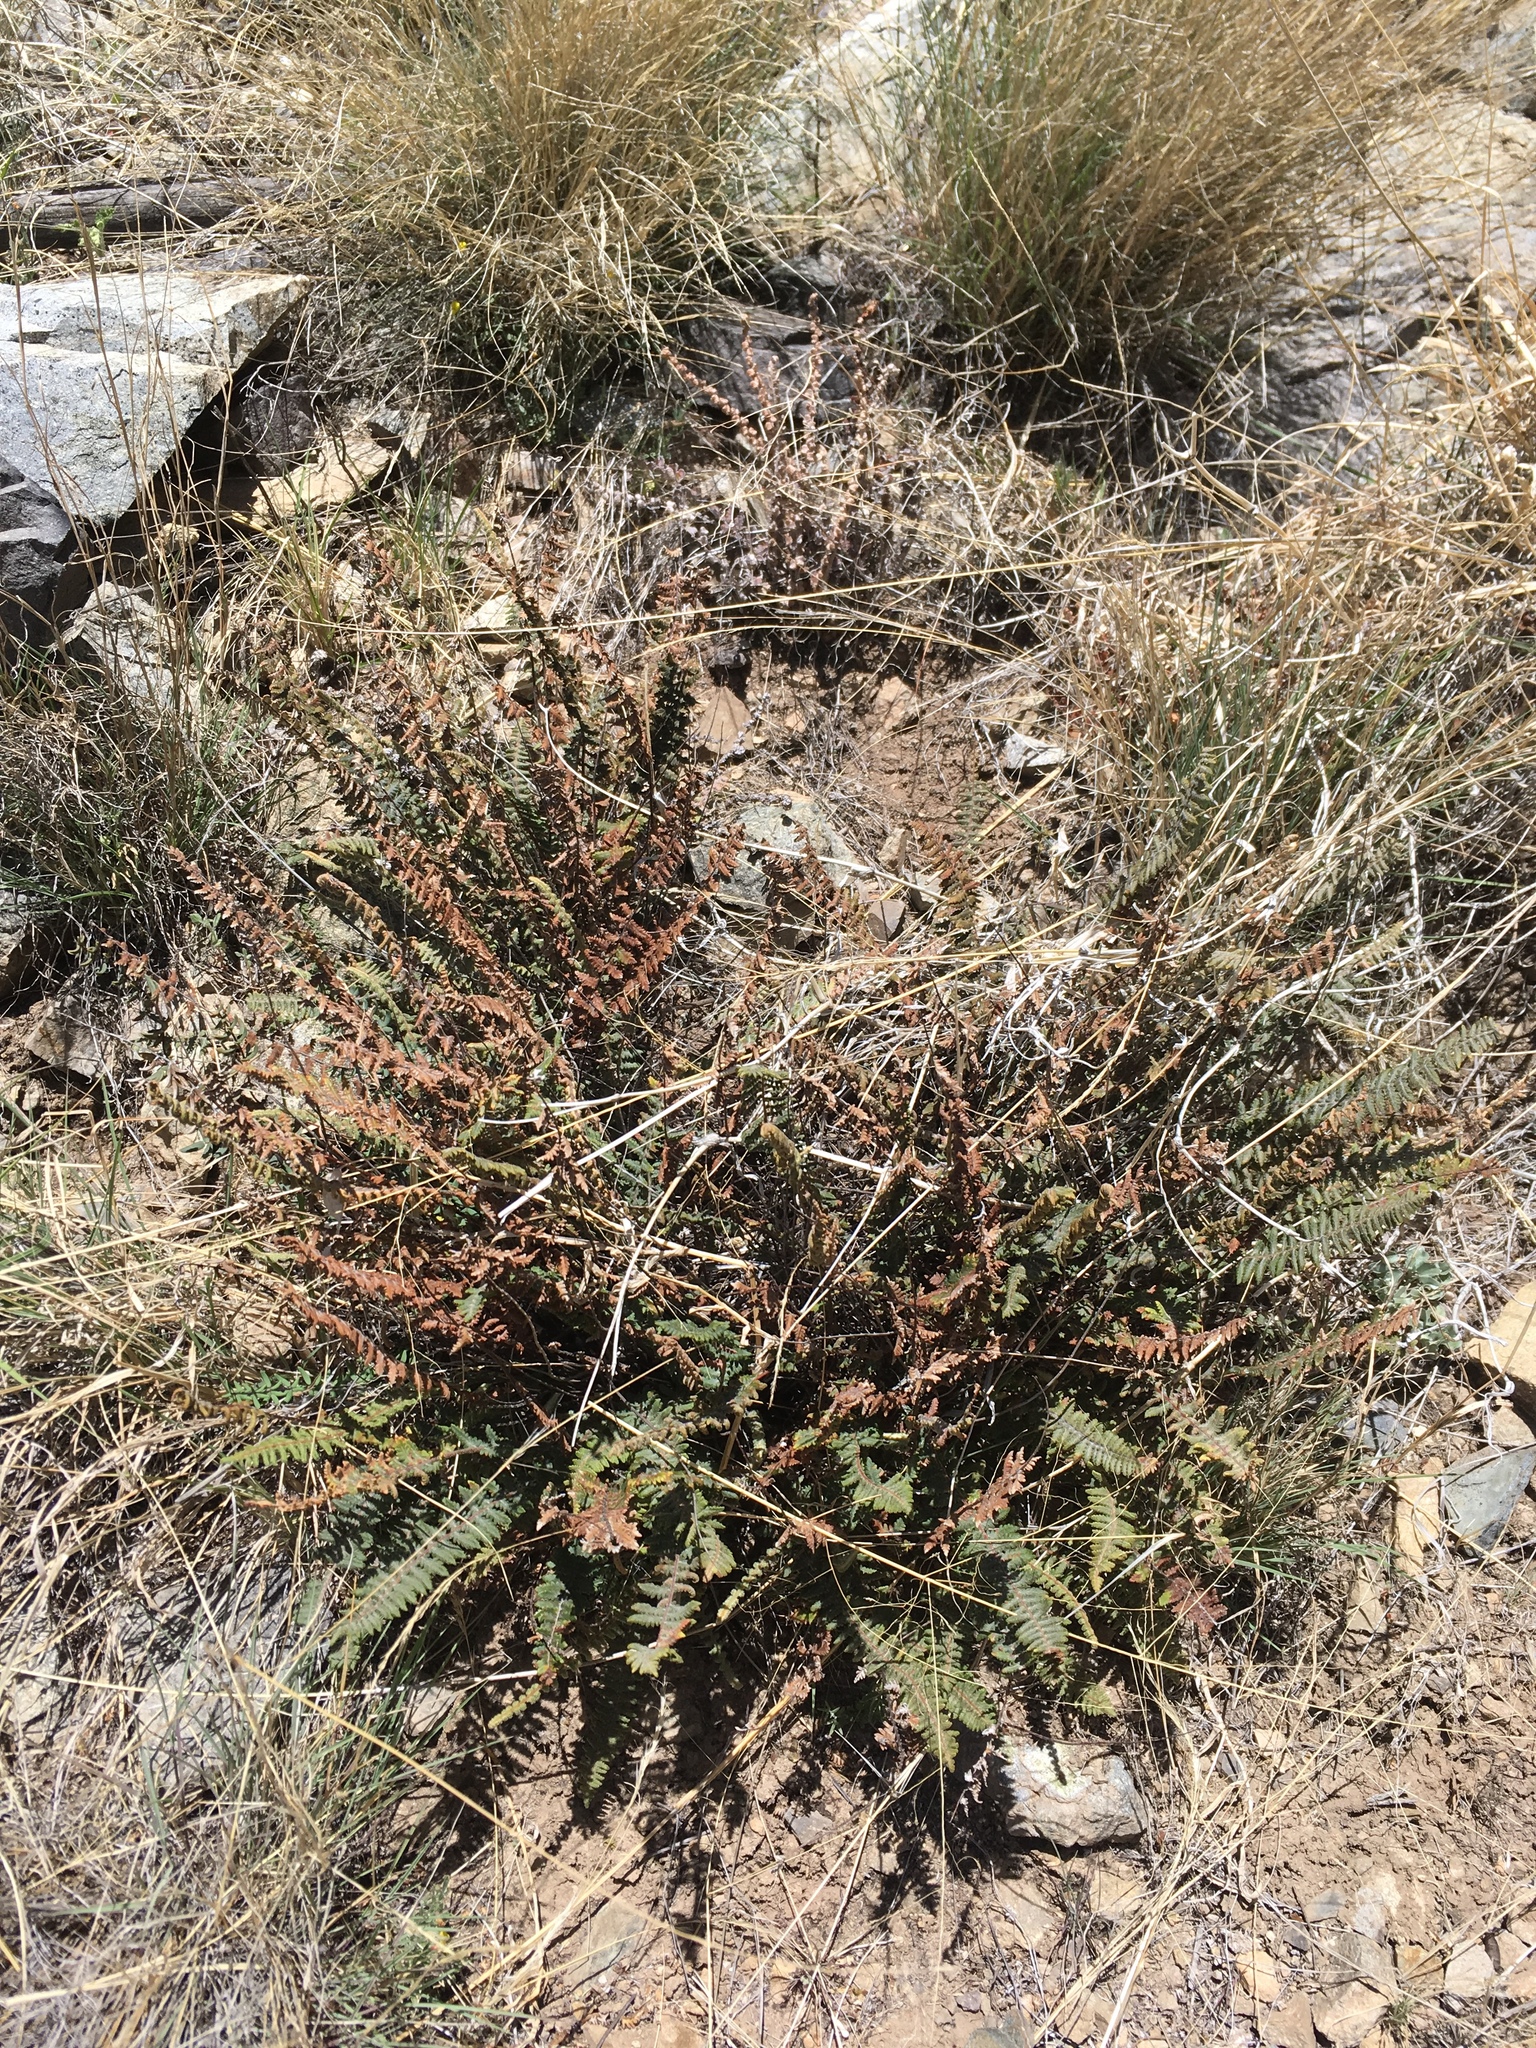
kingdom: Plantae
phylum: Tracheophyta
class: Polypodiopsida
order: Polypodiales
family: Pteridaceae
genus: Myriopteris
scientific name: Myriopteris aurea
